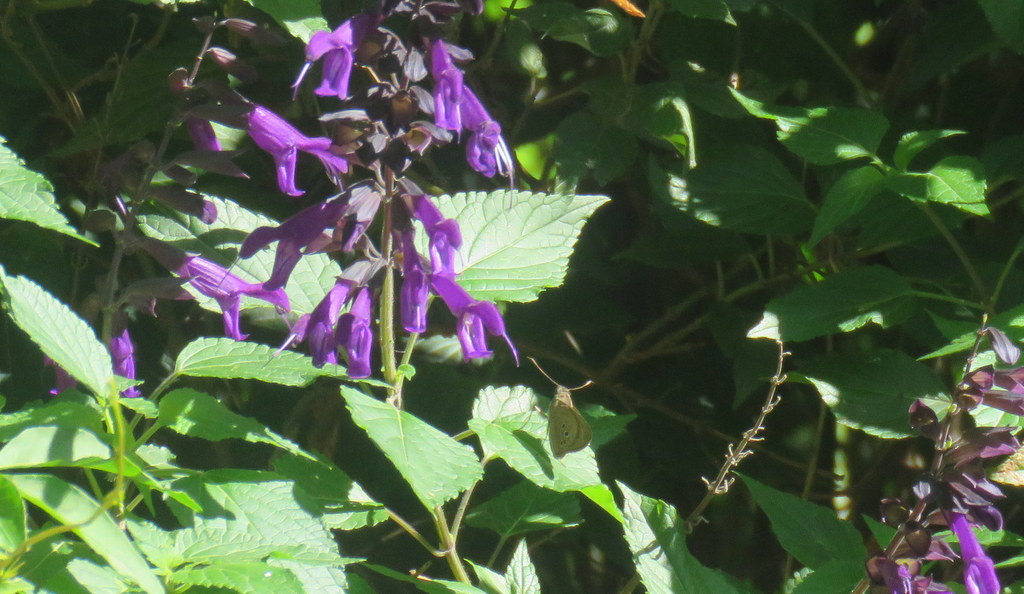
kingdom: Plantae
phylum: Tracheophyta
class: Magnoliopsida
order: Lamiales
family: Lamiaceae
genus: Salvia
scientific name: Salvia guaranitica
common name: Anise-scented sage
